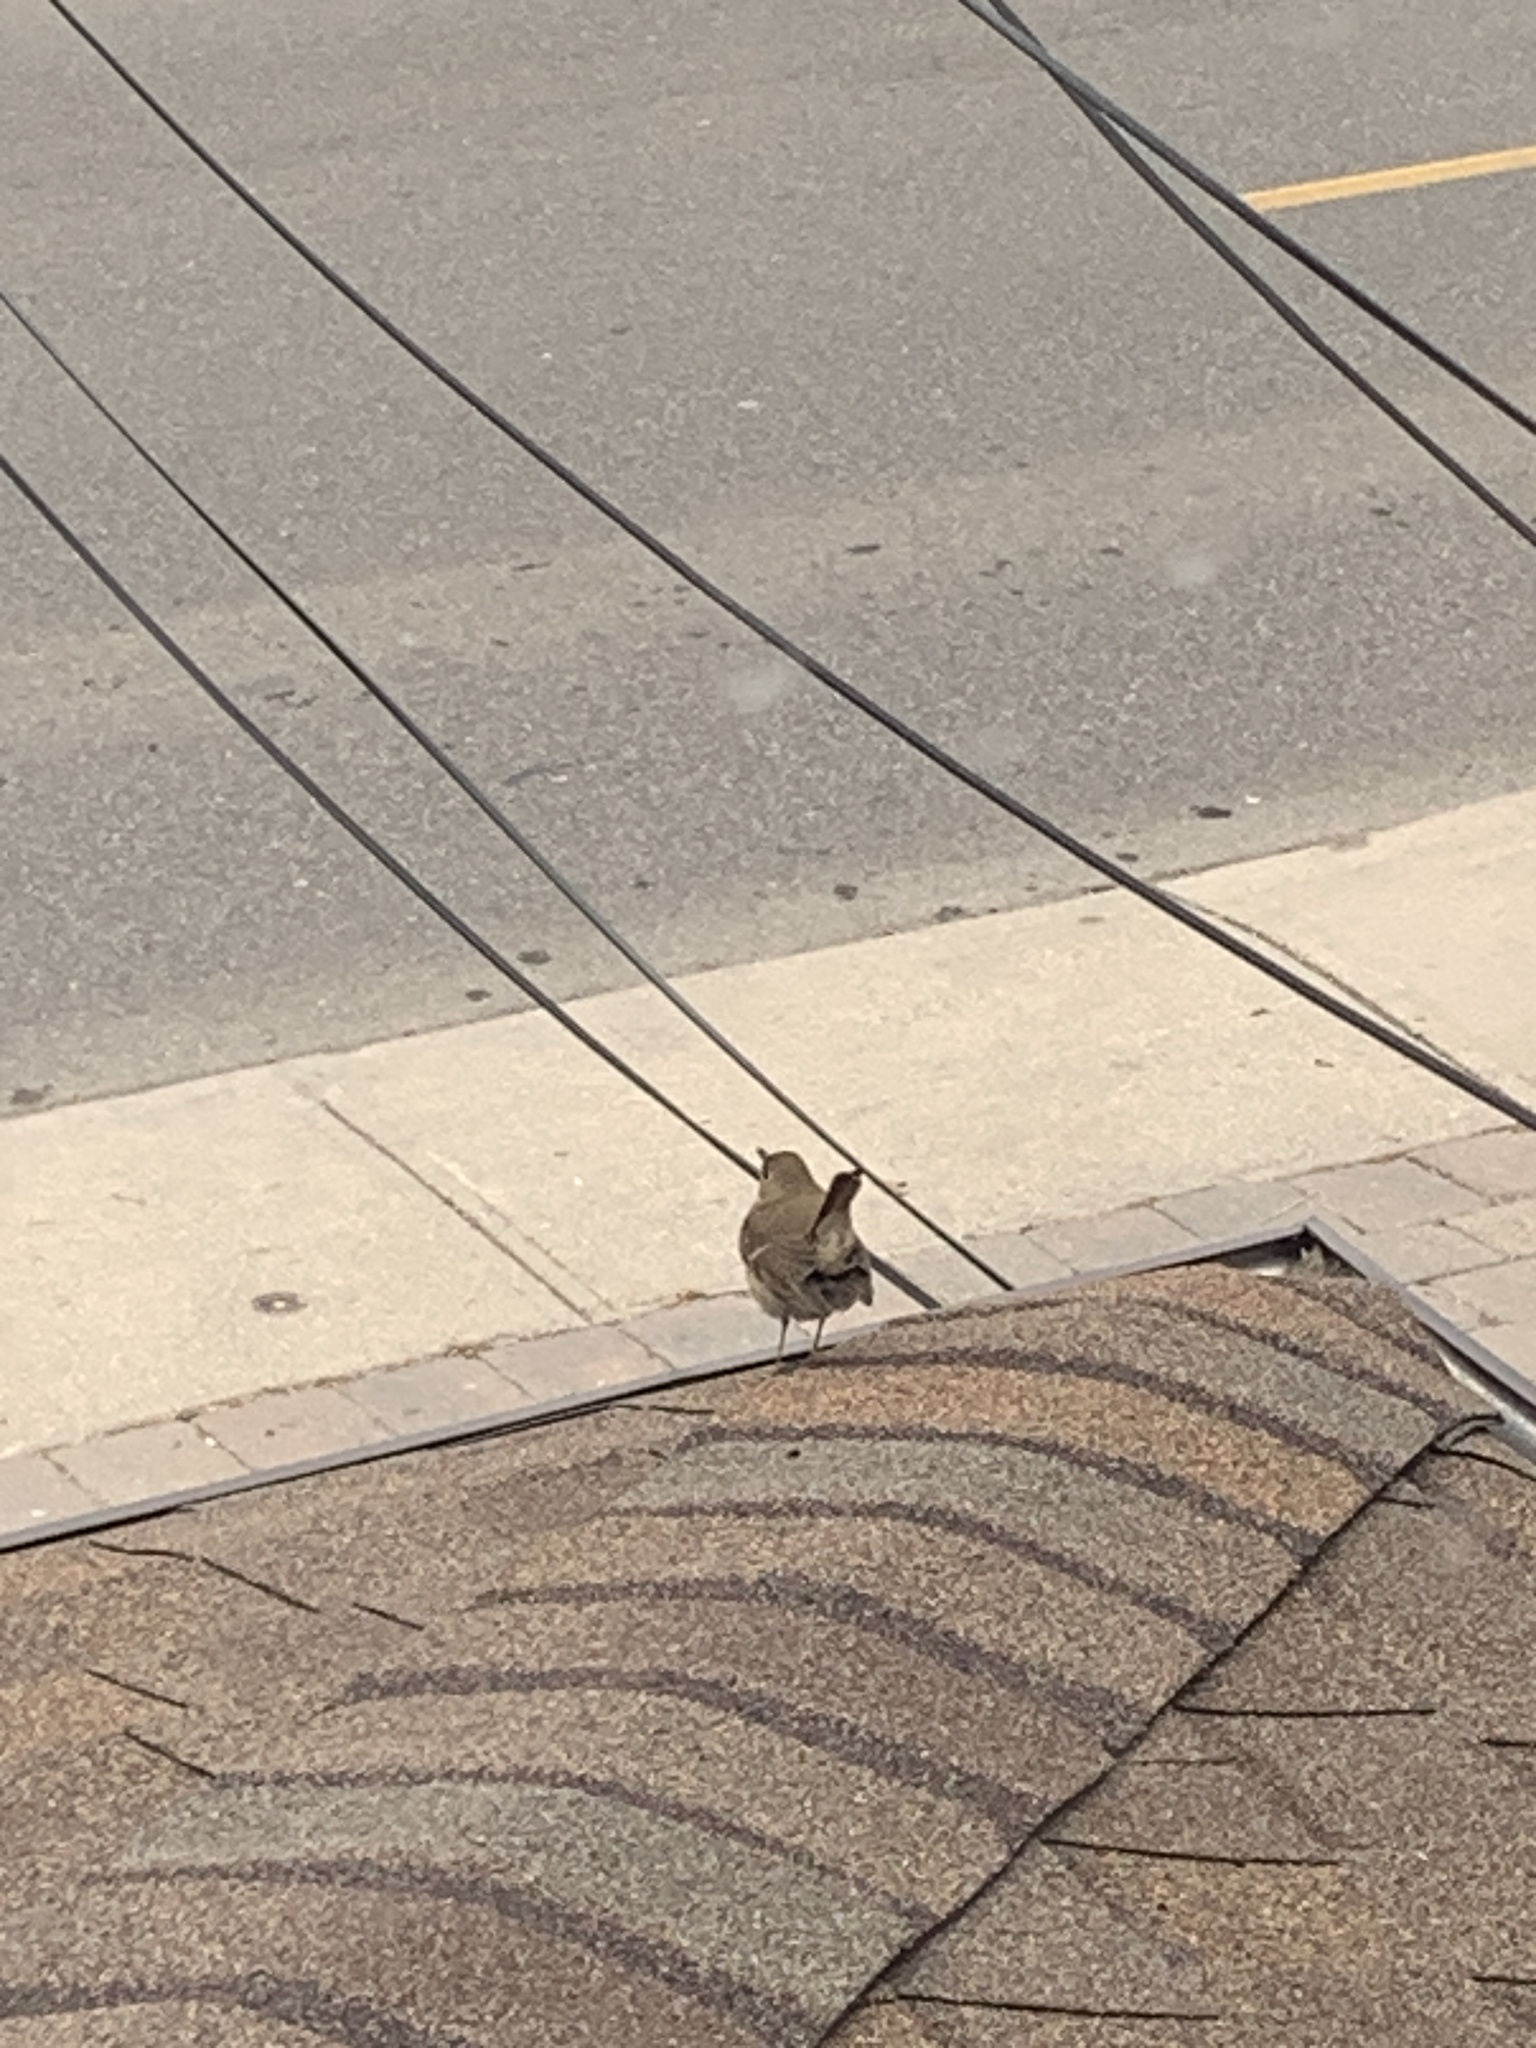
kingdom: Animalia
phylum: Chordata
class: Aves
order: Passeriformes
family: Turdidae
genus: Catharus
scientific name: Catharus guttatus
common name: Hermit thrush
